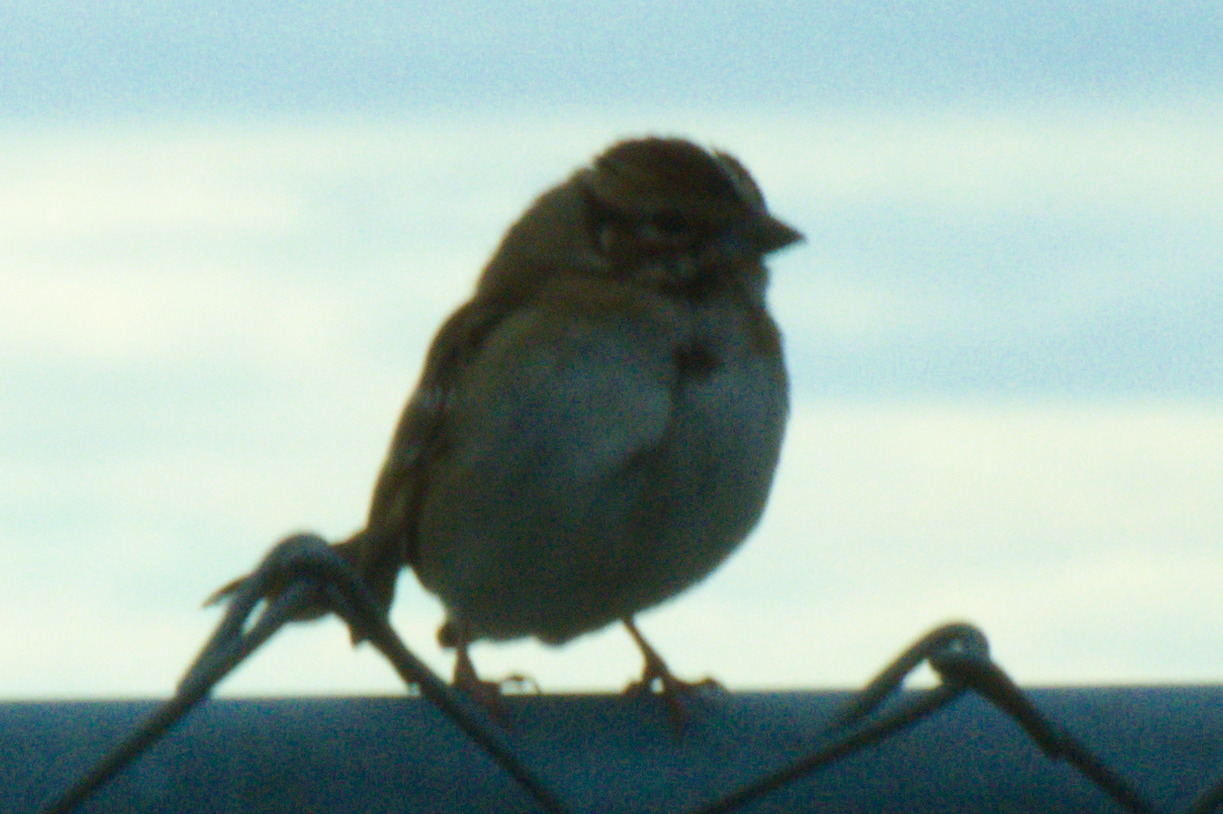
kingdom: Animalia
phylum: Chordata
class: Aves
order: Passeriformes
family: Passerellidae
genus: Chondestes
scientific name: Chondestes grammacus
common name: Lark sparrow
